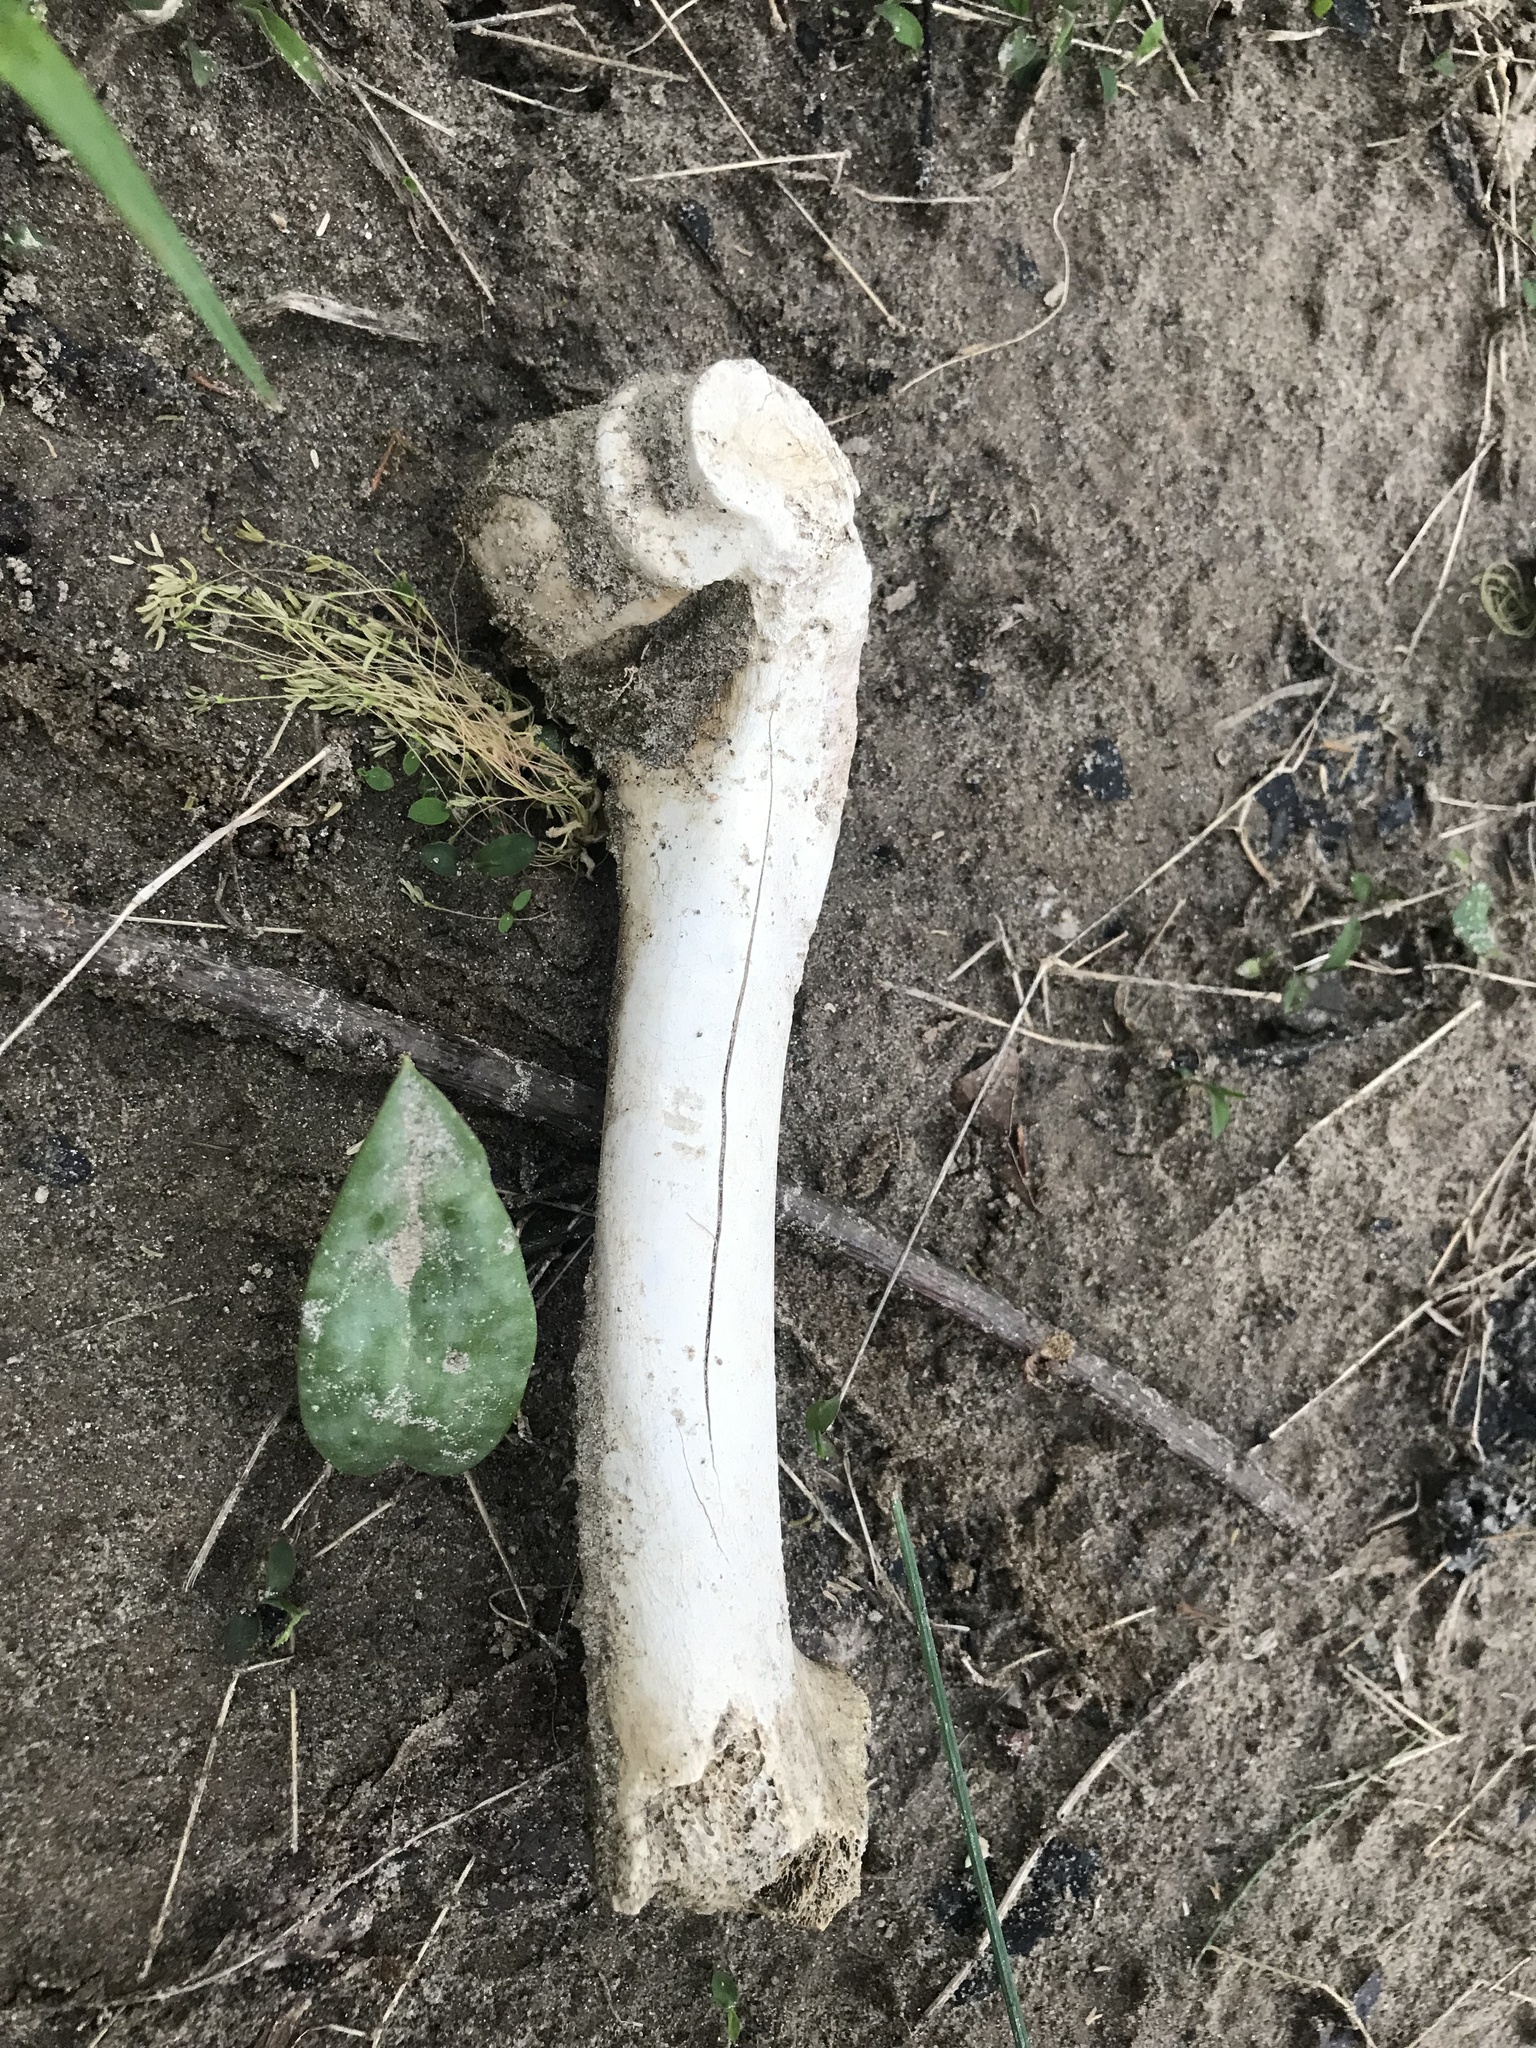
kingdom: Animalia
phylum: Chordata
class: Mammalia
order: Artiodactyla
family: Cervidae
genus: Odocoileus
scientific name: Odocoileus virginianus
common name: White-tailed deer
